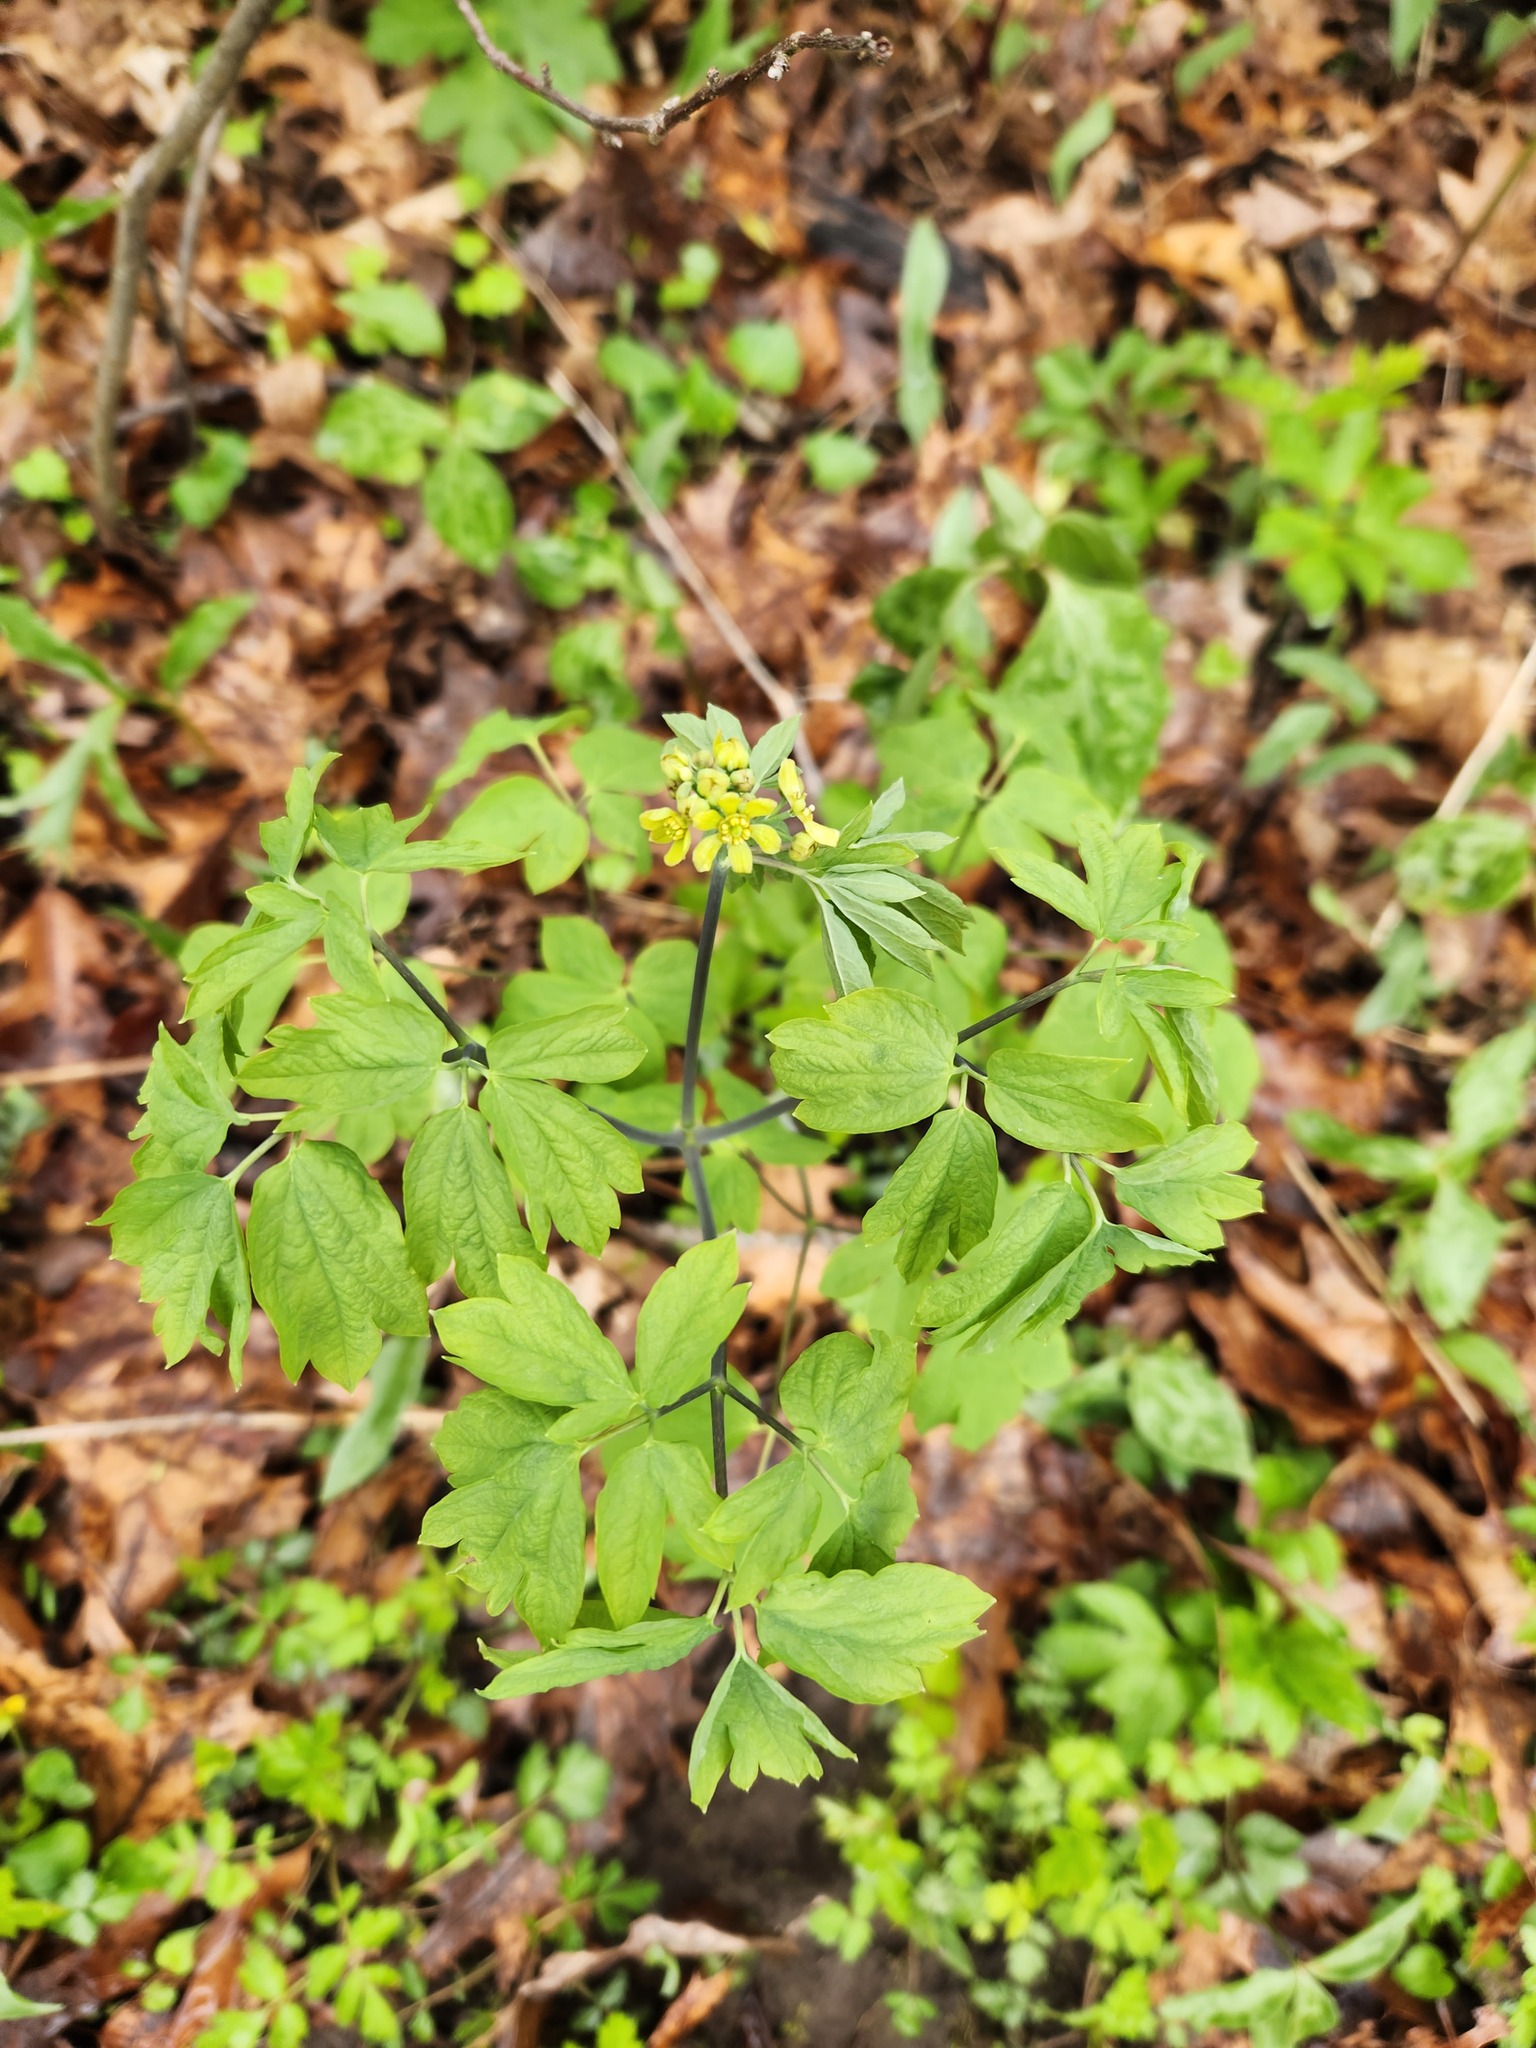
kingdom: Plantae
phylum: Tracheophyta
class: Magnoliopsida
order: Ranunculales
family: Berberidaceae
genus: Caulophyllum
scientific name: Caulophyllum thalictroides
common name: Blue cohosh
